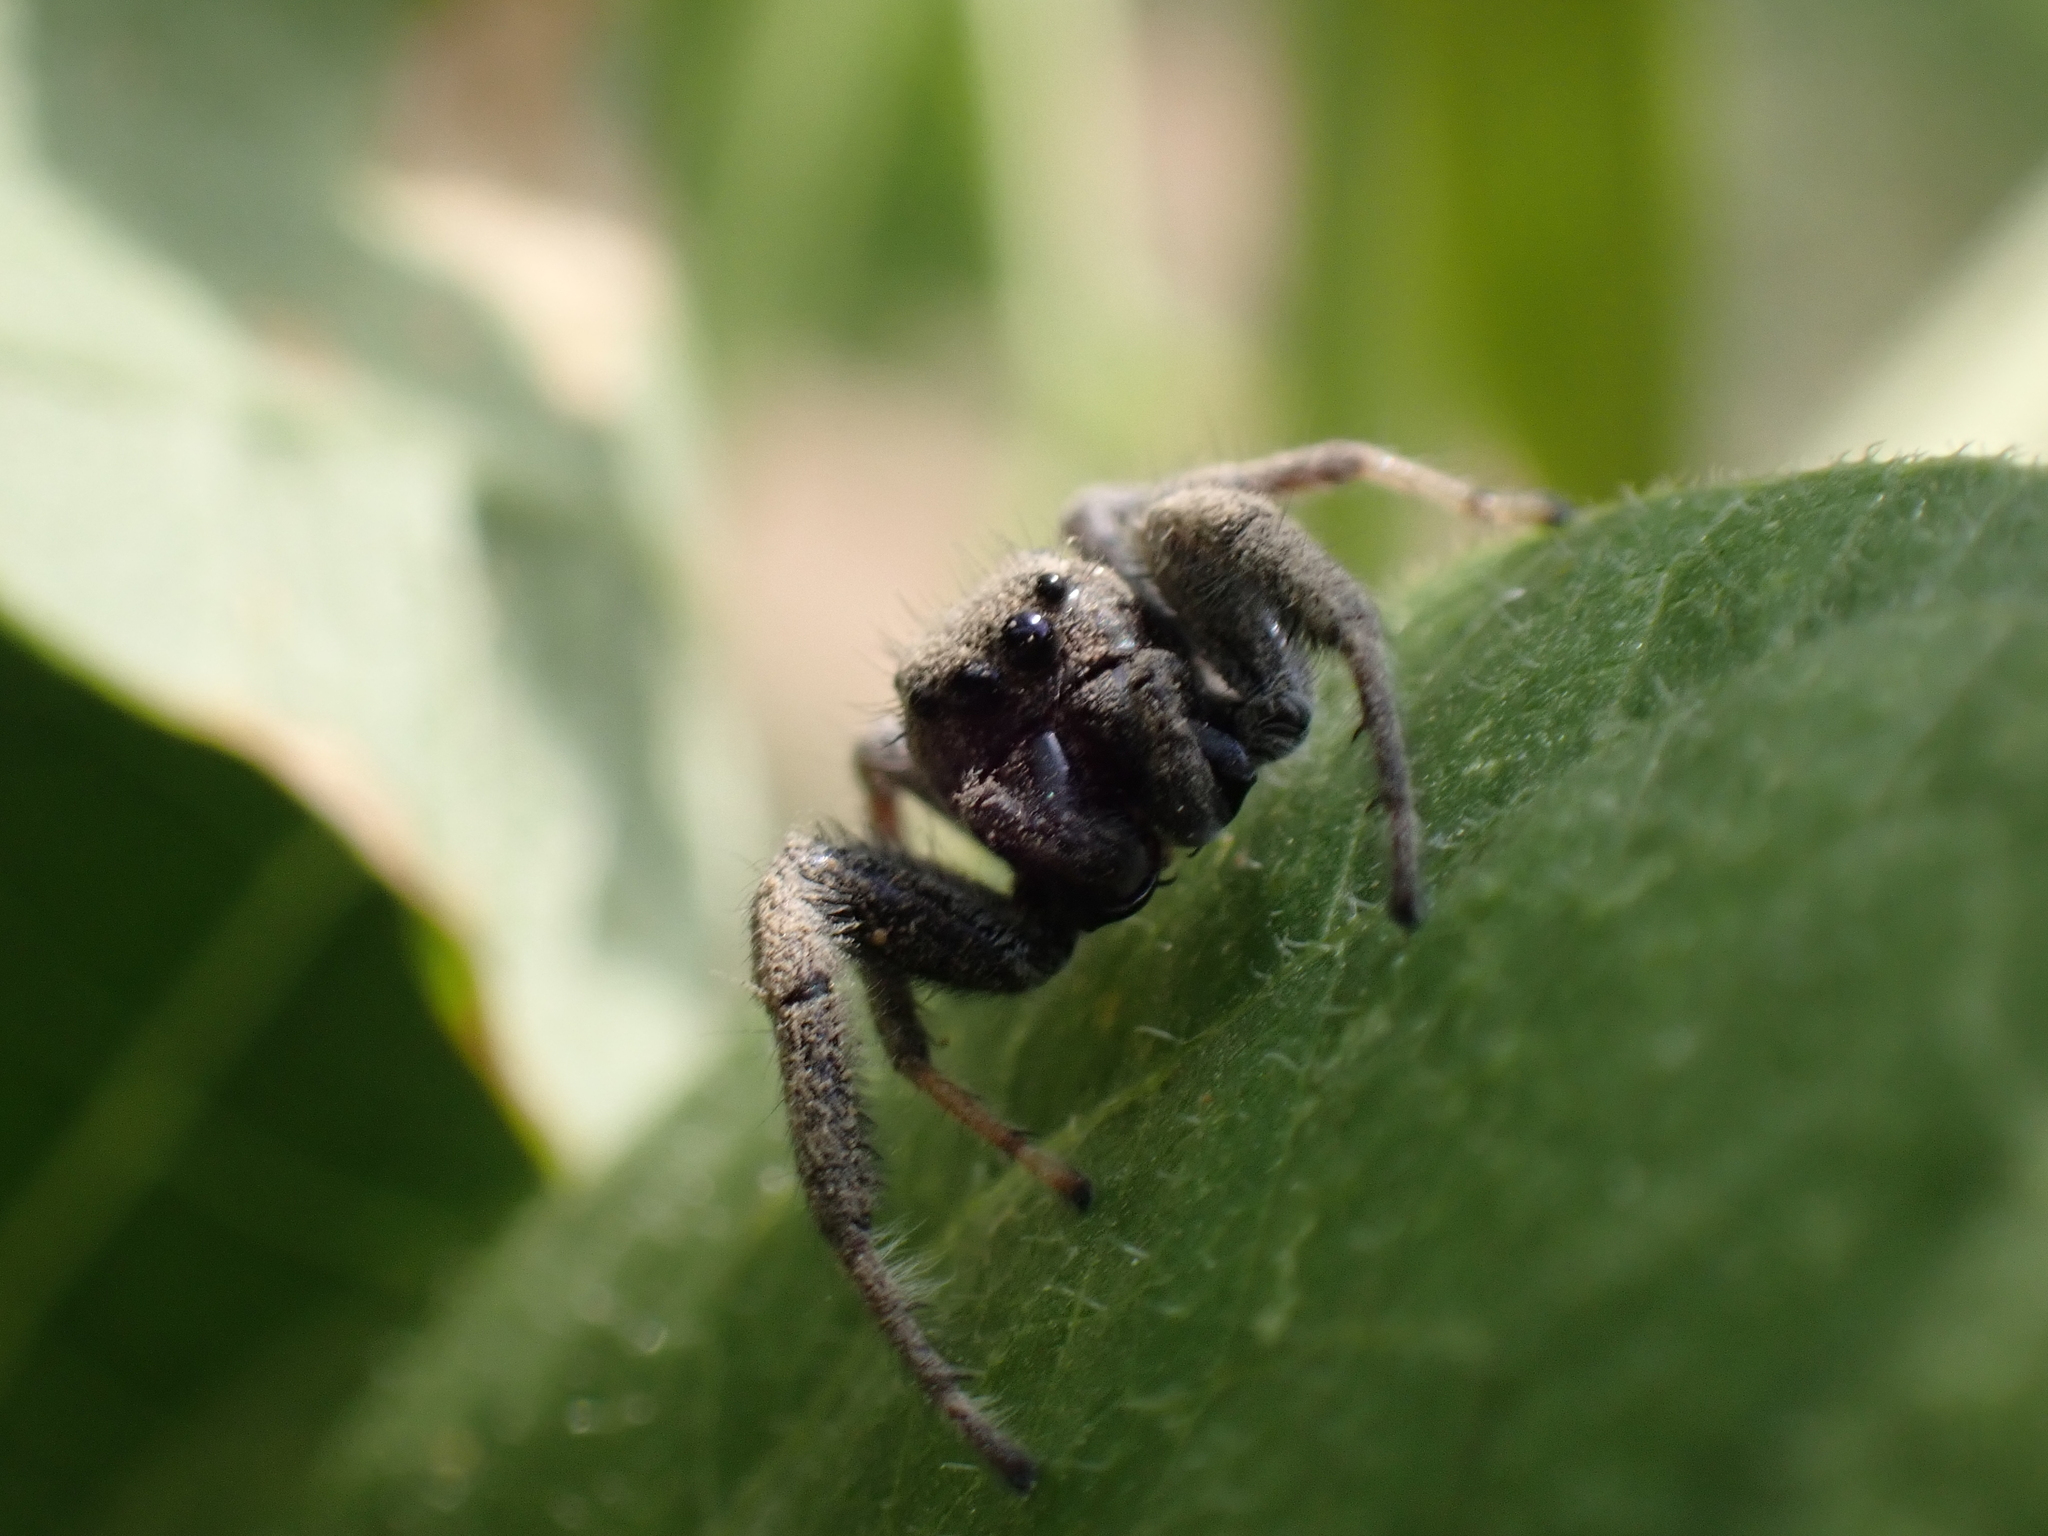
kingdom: Animalia
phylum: Arthropoda
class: Arachnida
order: Araneae
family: Salticidae
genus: Paraphidippus
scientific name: Paraphidippus aurantius
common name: Jumping spiders
